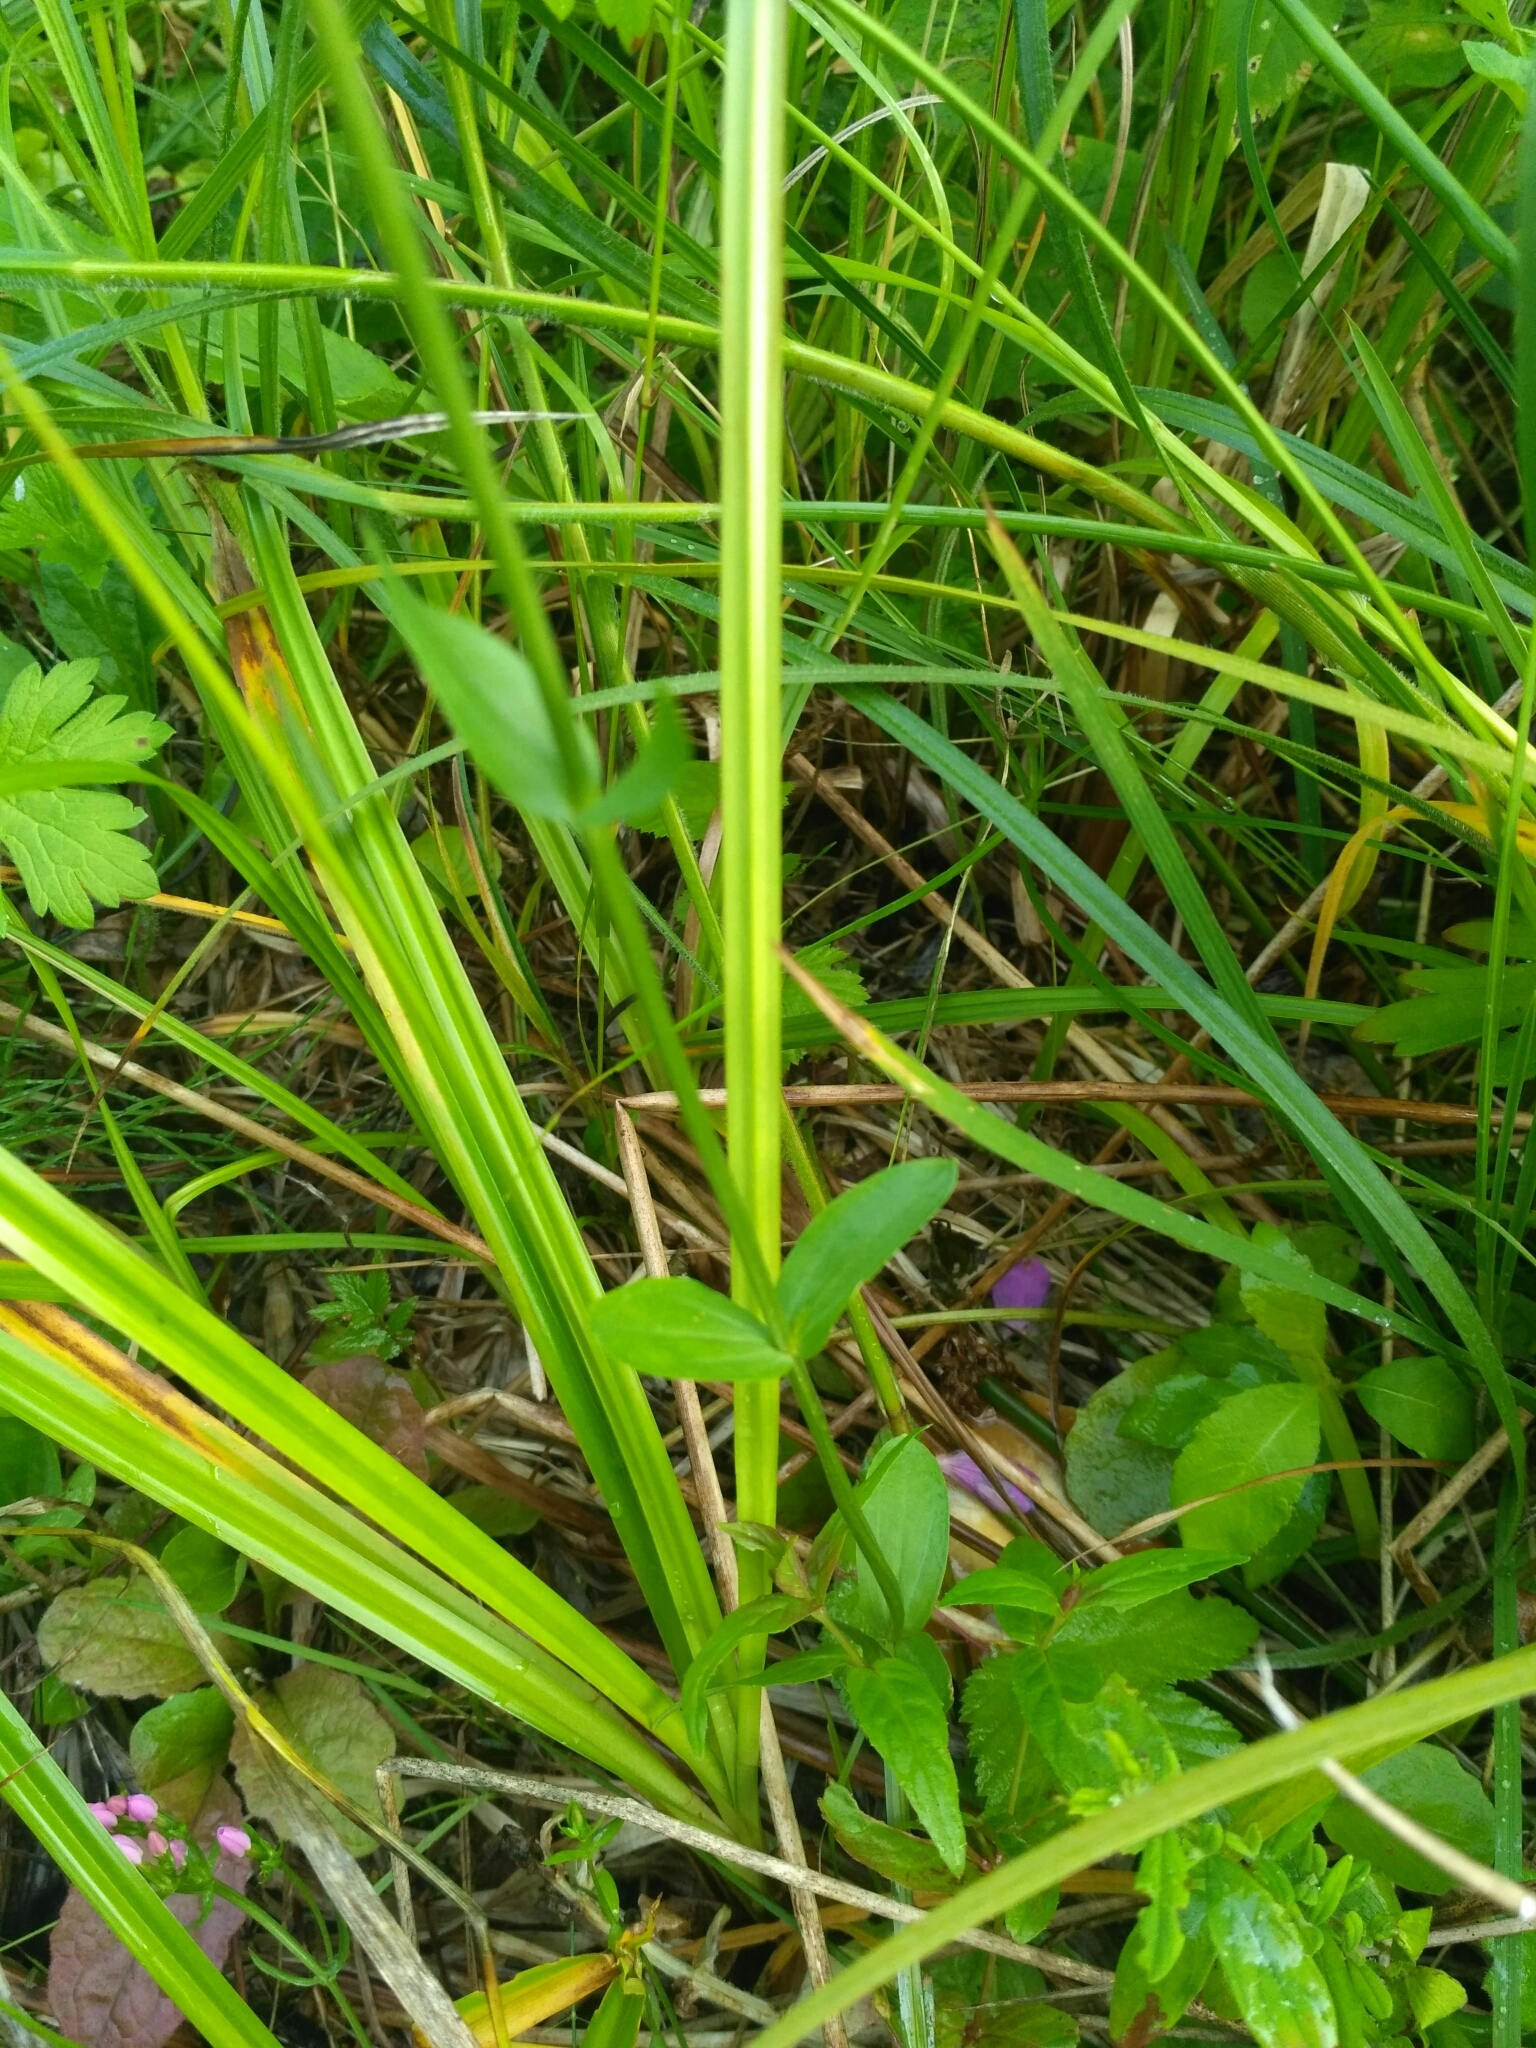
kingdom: Plantae
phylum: Tracheophyta
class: Magnoliopsida
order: Gentianales
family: Gentianaceae
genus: Centaurium
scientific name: Centaurium erythraea
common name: Common centaury
